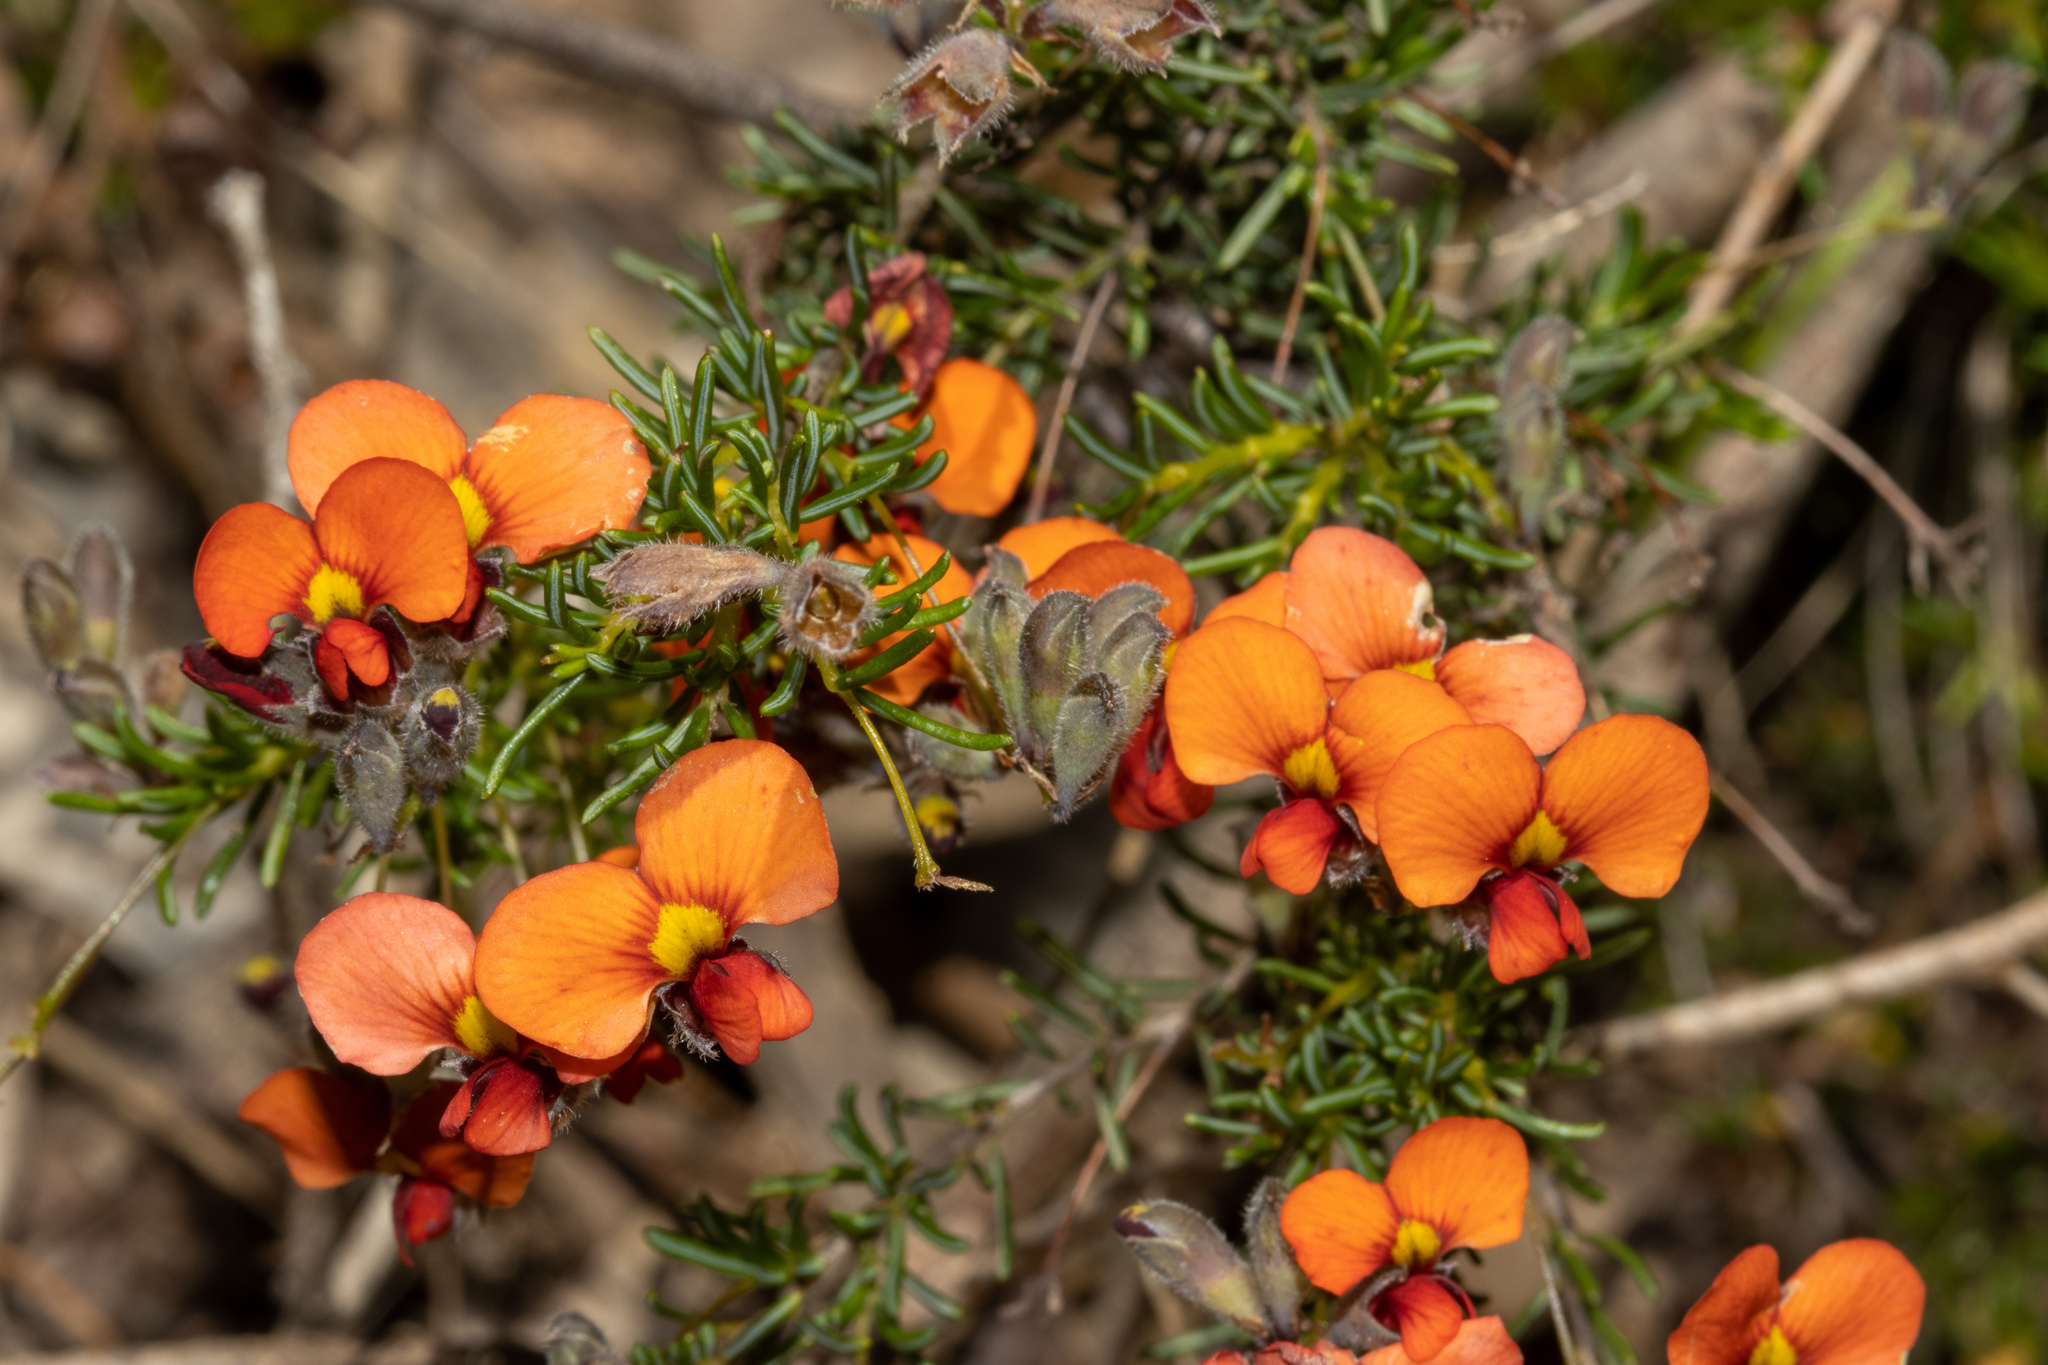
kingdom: Plantae
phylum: Tracheophyta
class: Magnoliopsida
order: Fabales
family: Fabaceae
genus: Dillwynia
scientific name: Dillwynia hispida
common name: Red parrot-pea
